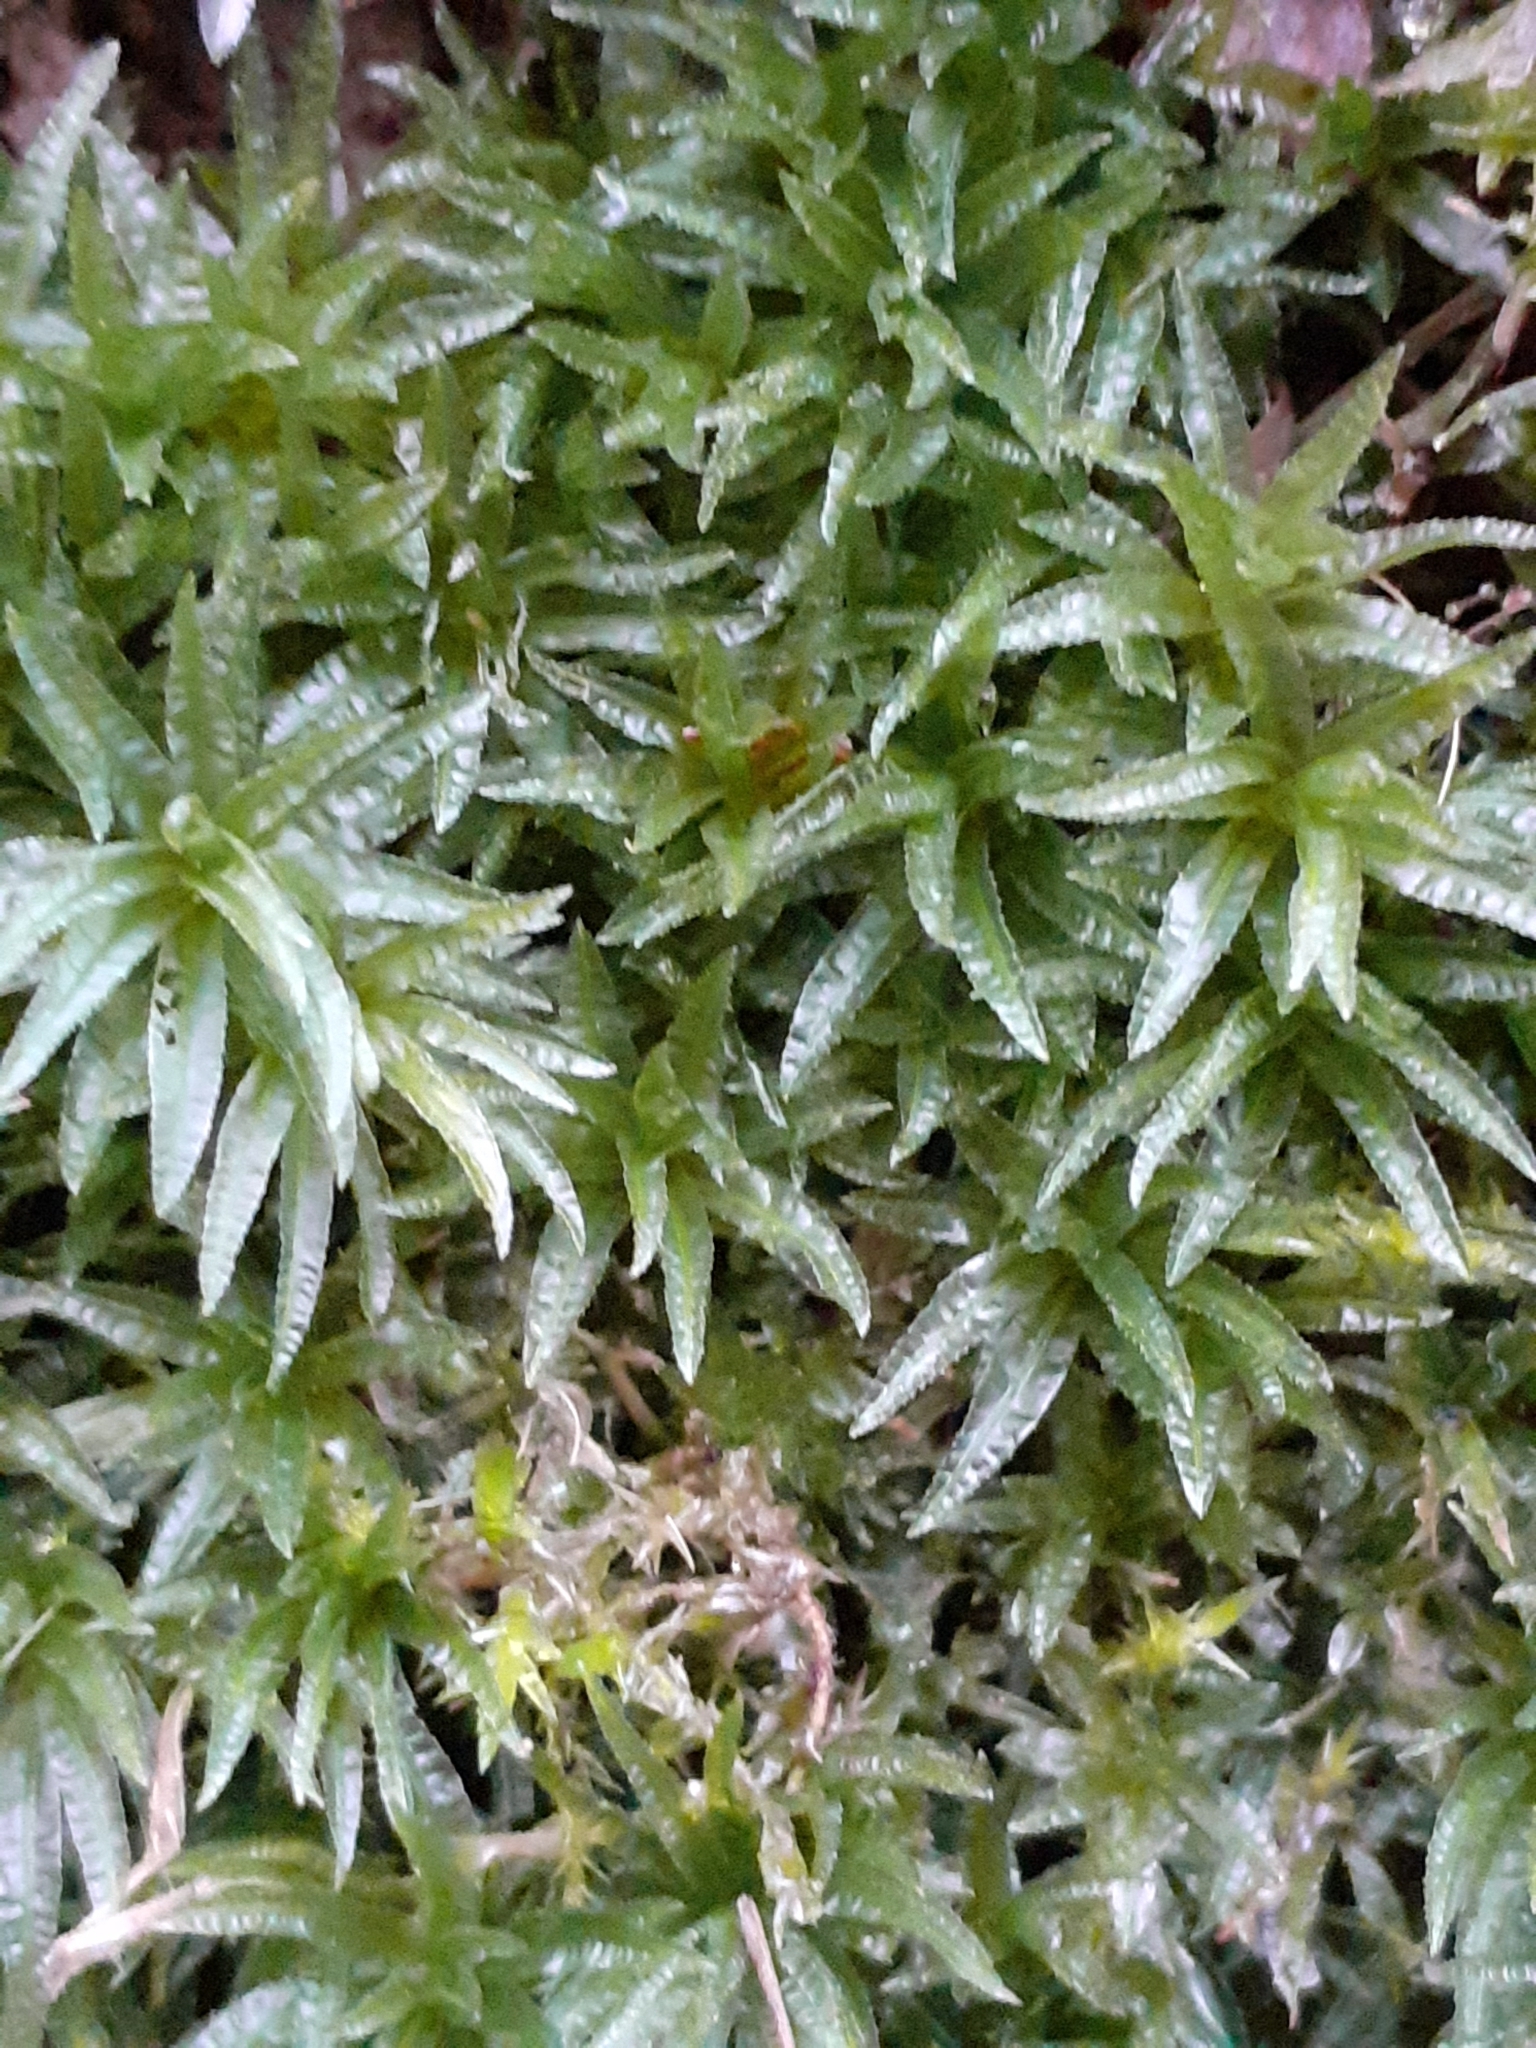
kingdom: Plantae
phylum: Bryophyta
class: Polytrichopsida
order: Polytrichales
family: Polytrichaceae
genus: Atrichum
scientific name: Atrichum undulatum
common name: Common smoothcap
